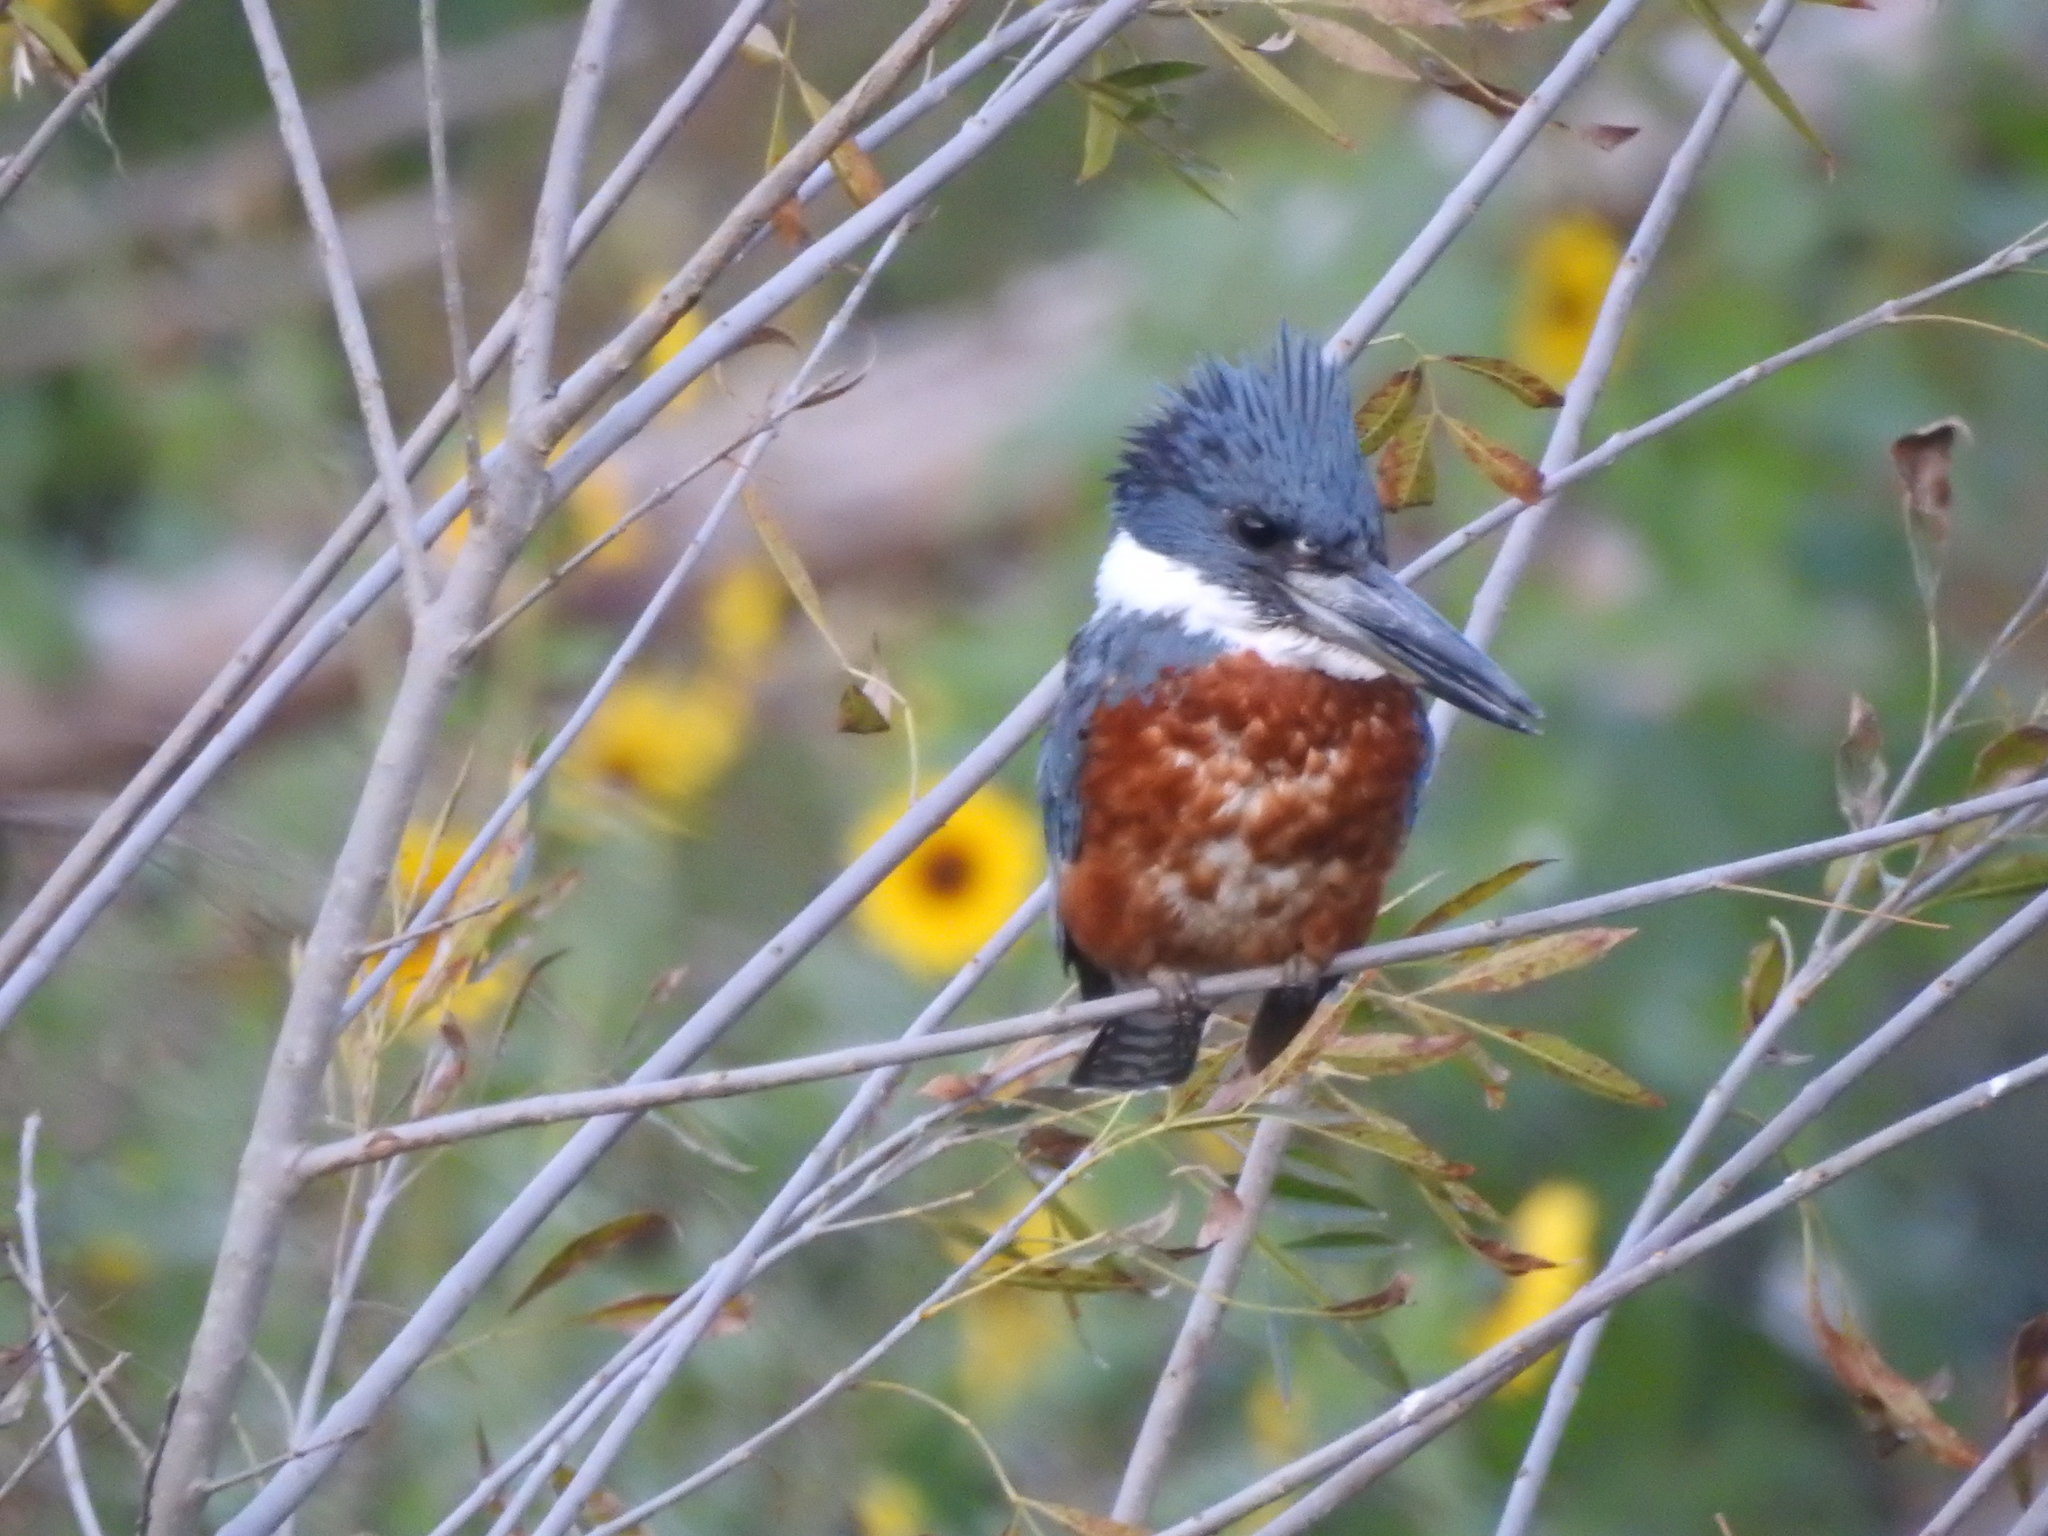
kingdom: Animalia
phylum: Chordata
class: Aves
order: Coraciiformes
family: Alcedinidae
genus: Megaceryle
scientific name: Megaceryle torquata
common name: Ringed kingfisher
